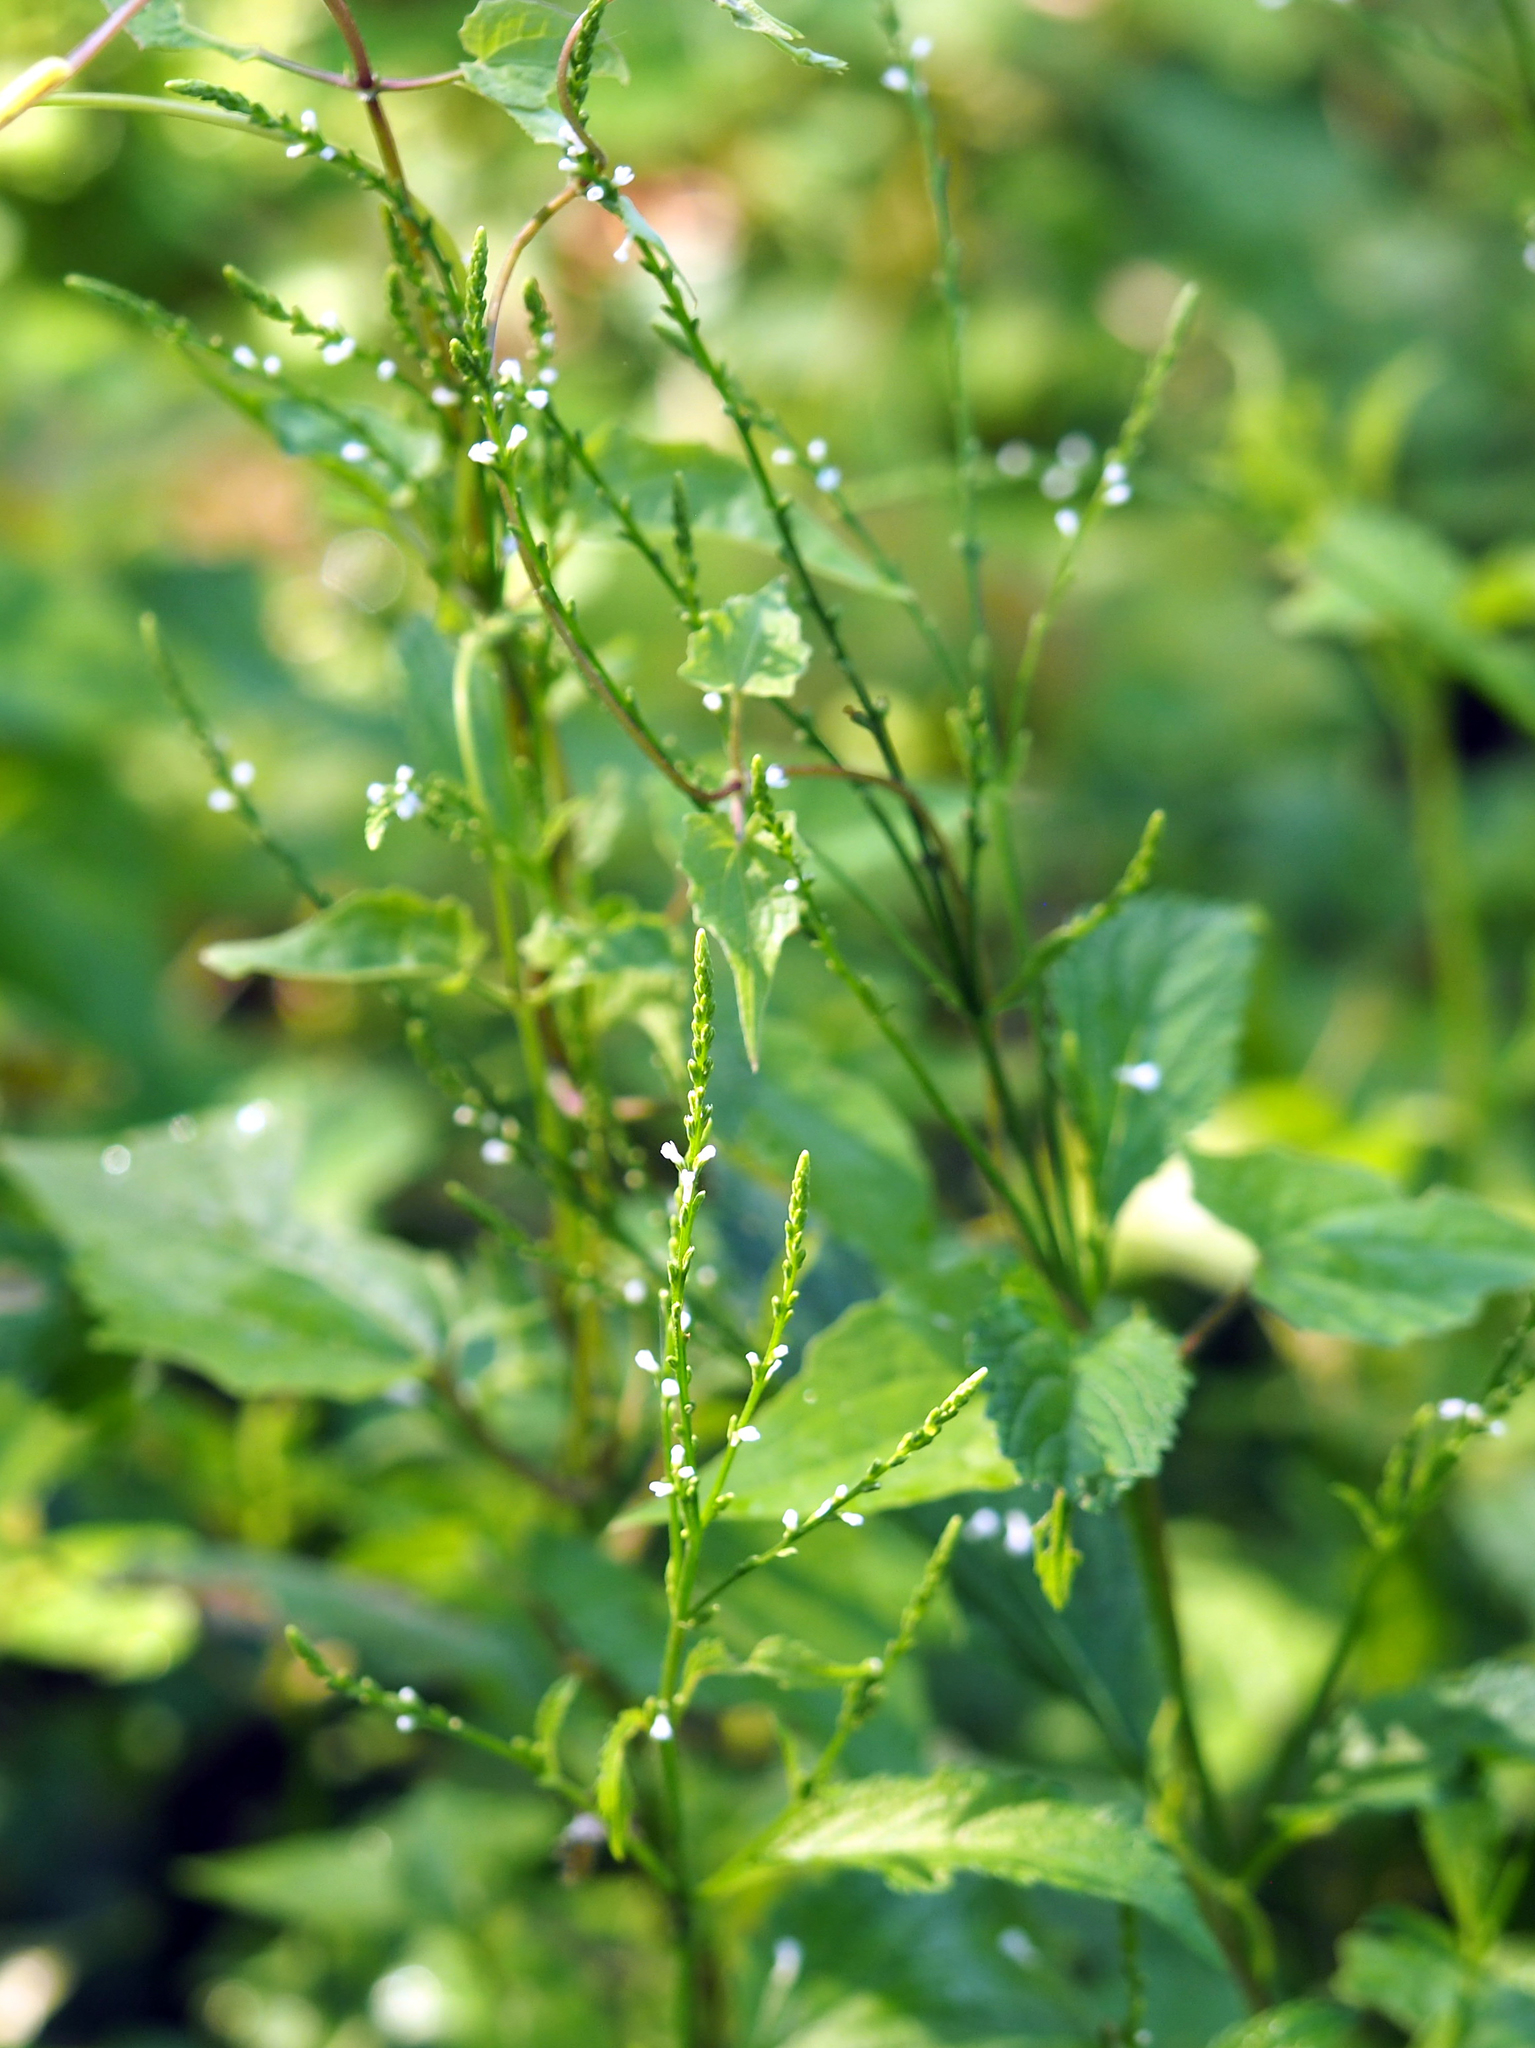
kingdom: Plantae
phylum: Tracheophyta
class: Magnoliopsida
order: Lamiales
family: Verbenaceae
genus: Verbena
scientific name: Verbena urticifolia
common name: Nettle-leaved vervain
